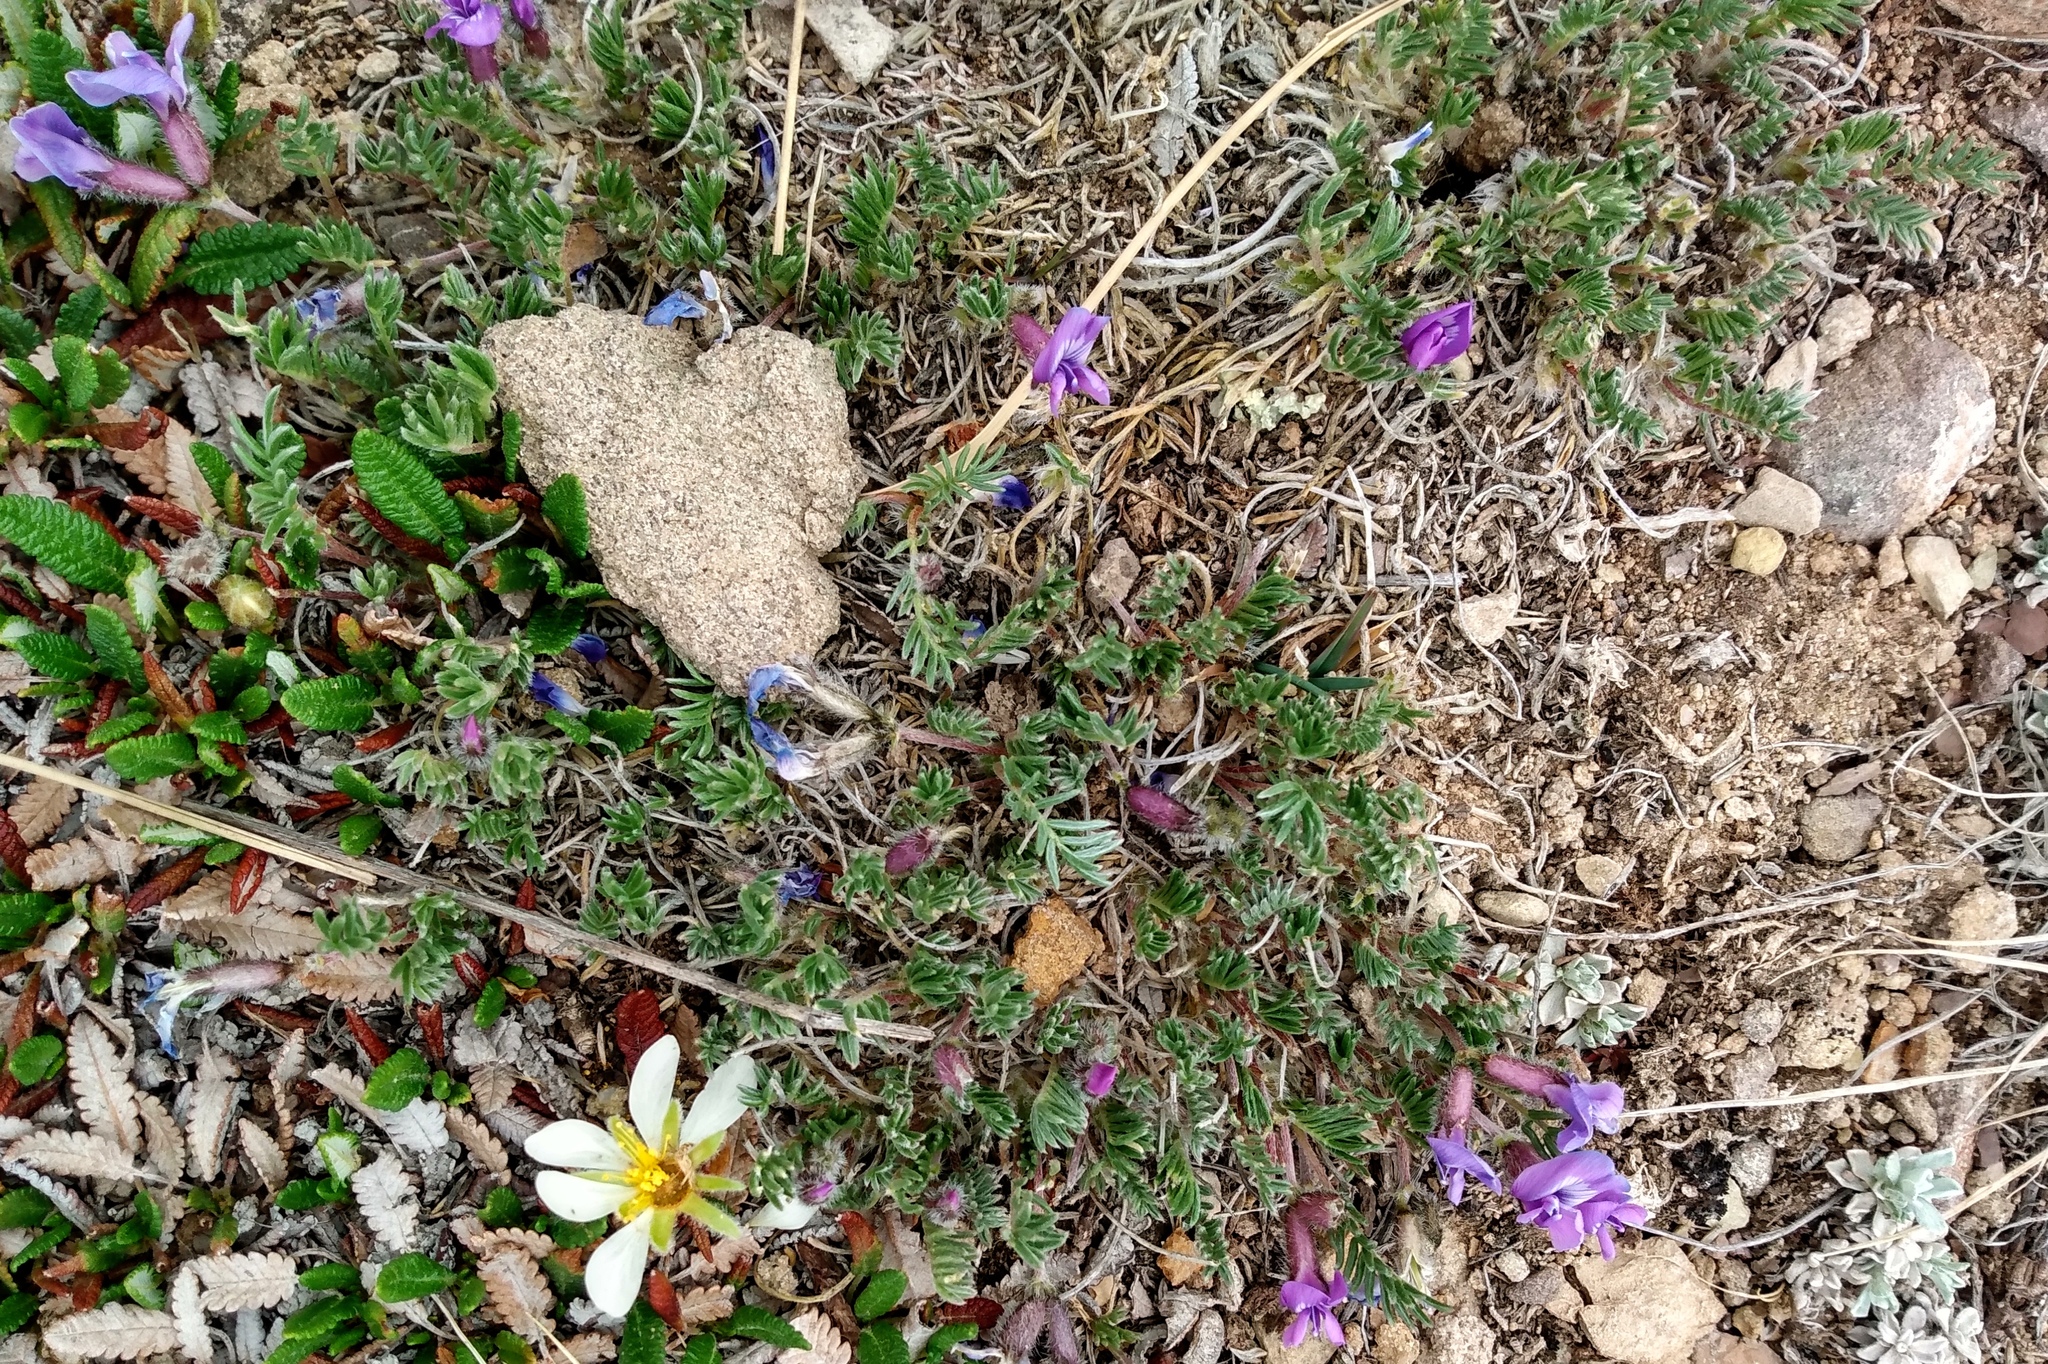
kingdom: Plantae
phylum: Tracheophyta
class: Magnoliopsida
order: Fabales
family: Fabaceae
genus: Oxytropis
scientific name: Oxytropis podocarpa
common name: Gray's oxytrope
